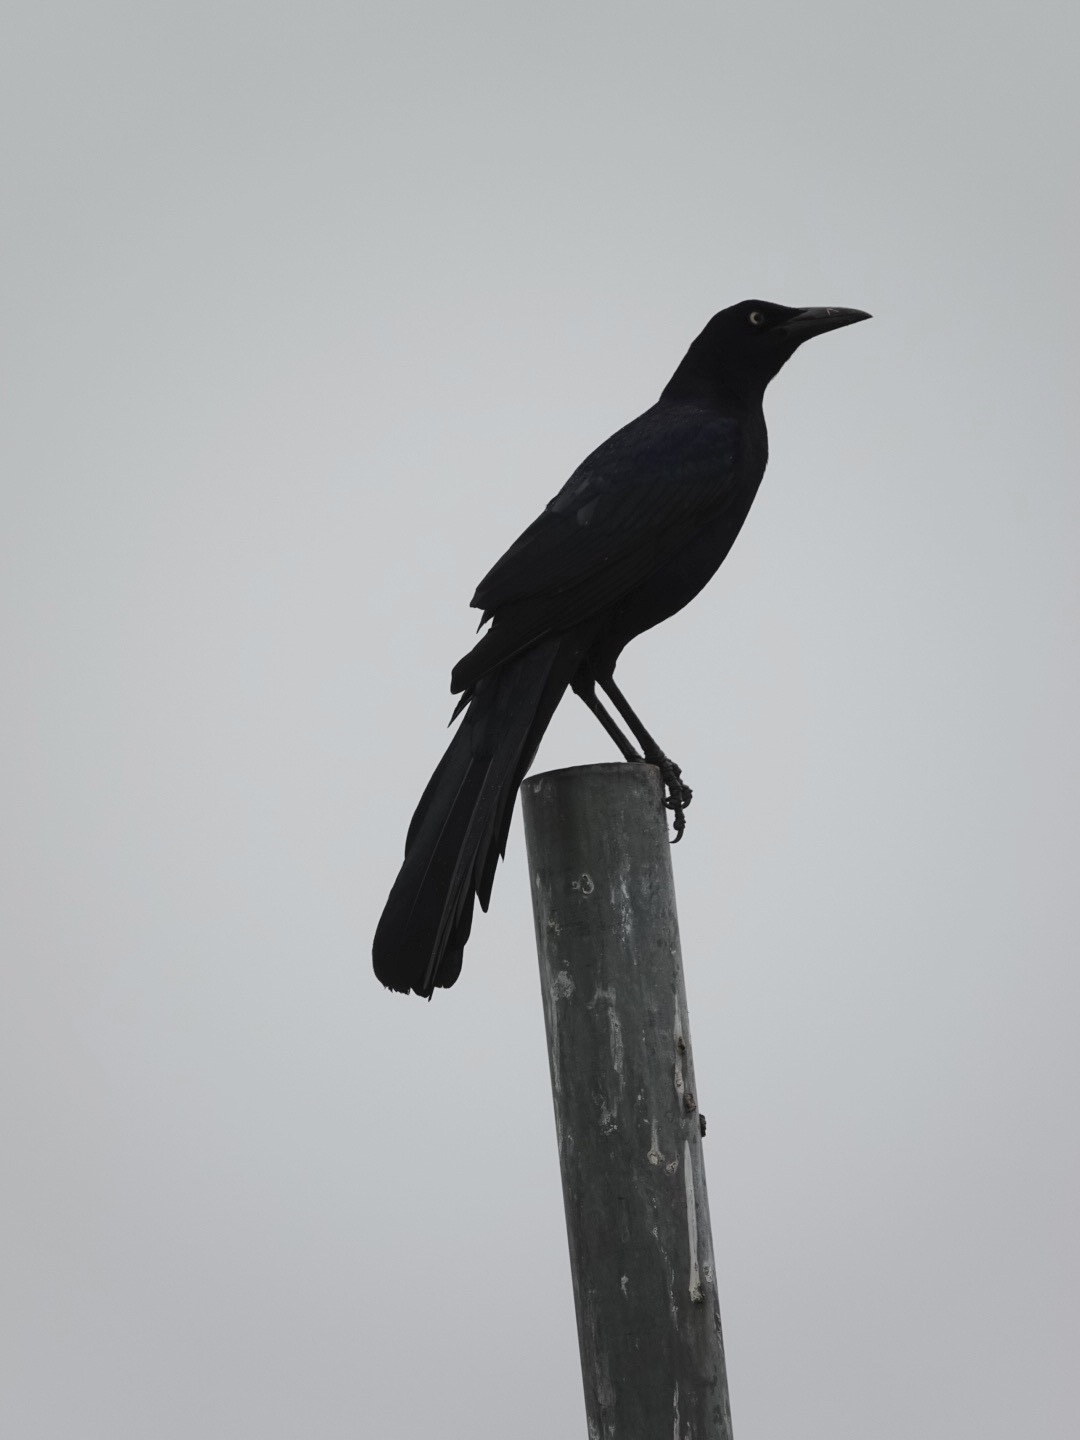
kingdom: Animalia
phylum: Chordata
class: Aves
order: Passeriformes
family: Icteridae
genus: Quiscalus
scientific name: Quiscalus mexicanus
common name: Great-tailed grackle
